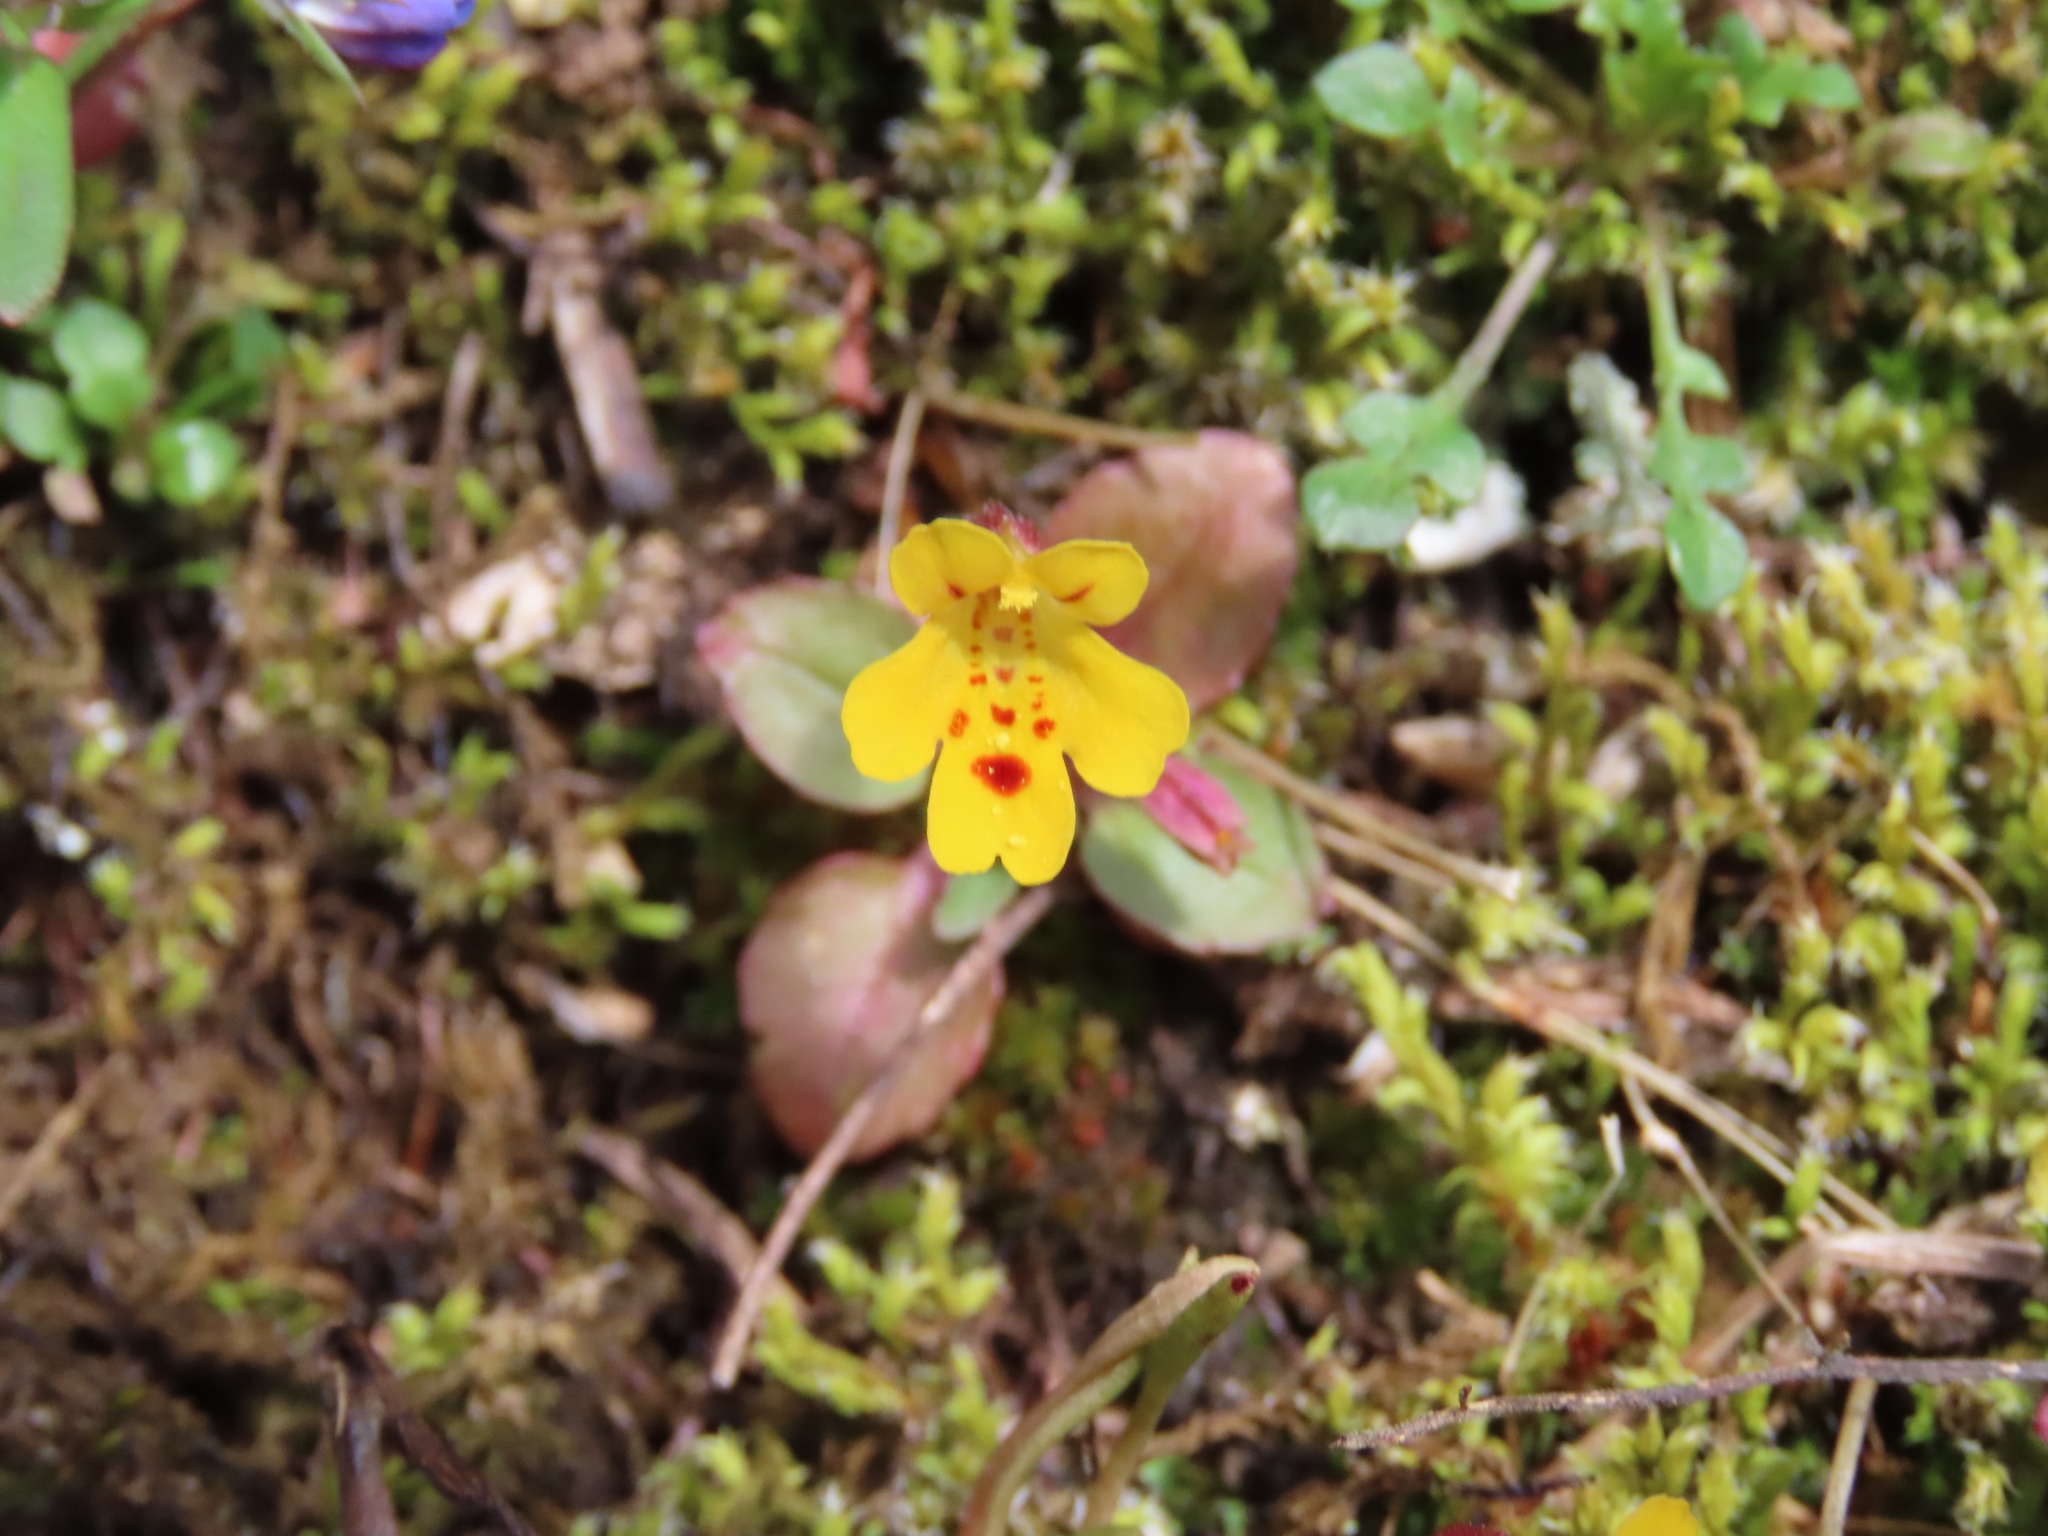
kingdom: Plantae
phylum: Tracheophyta
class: Magnoliopsida
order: Lamiales
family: Phrymaceae
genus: Erythranthe
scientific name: Erythranthe alsinoides
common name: Chickweed monkeyflower
